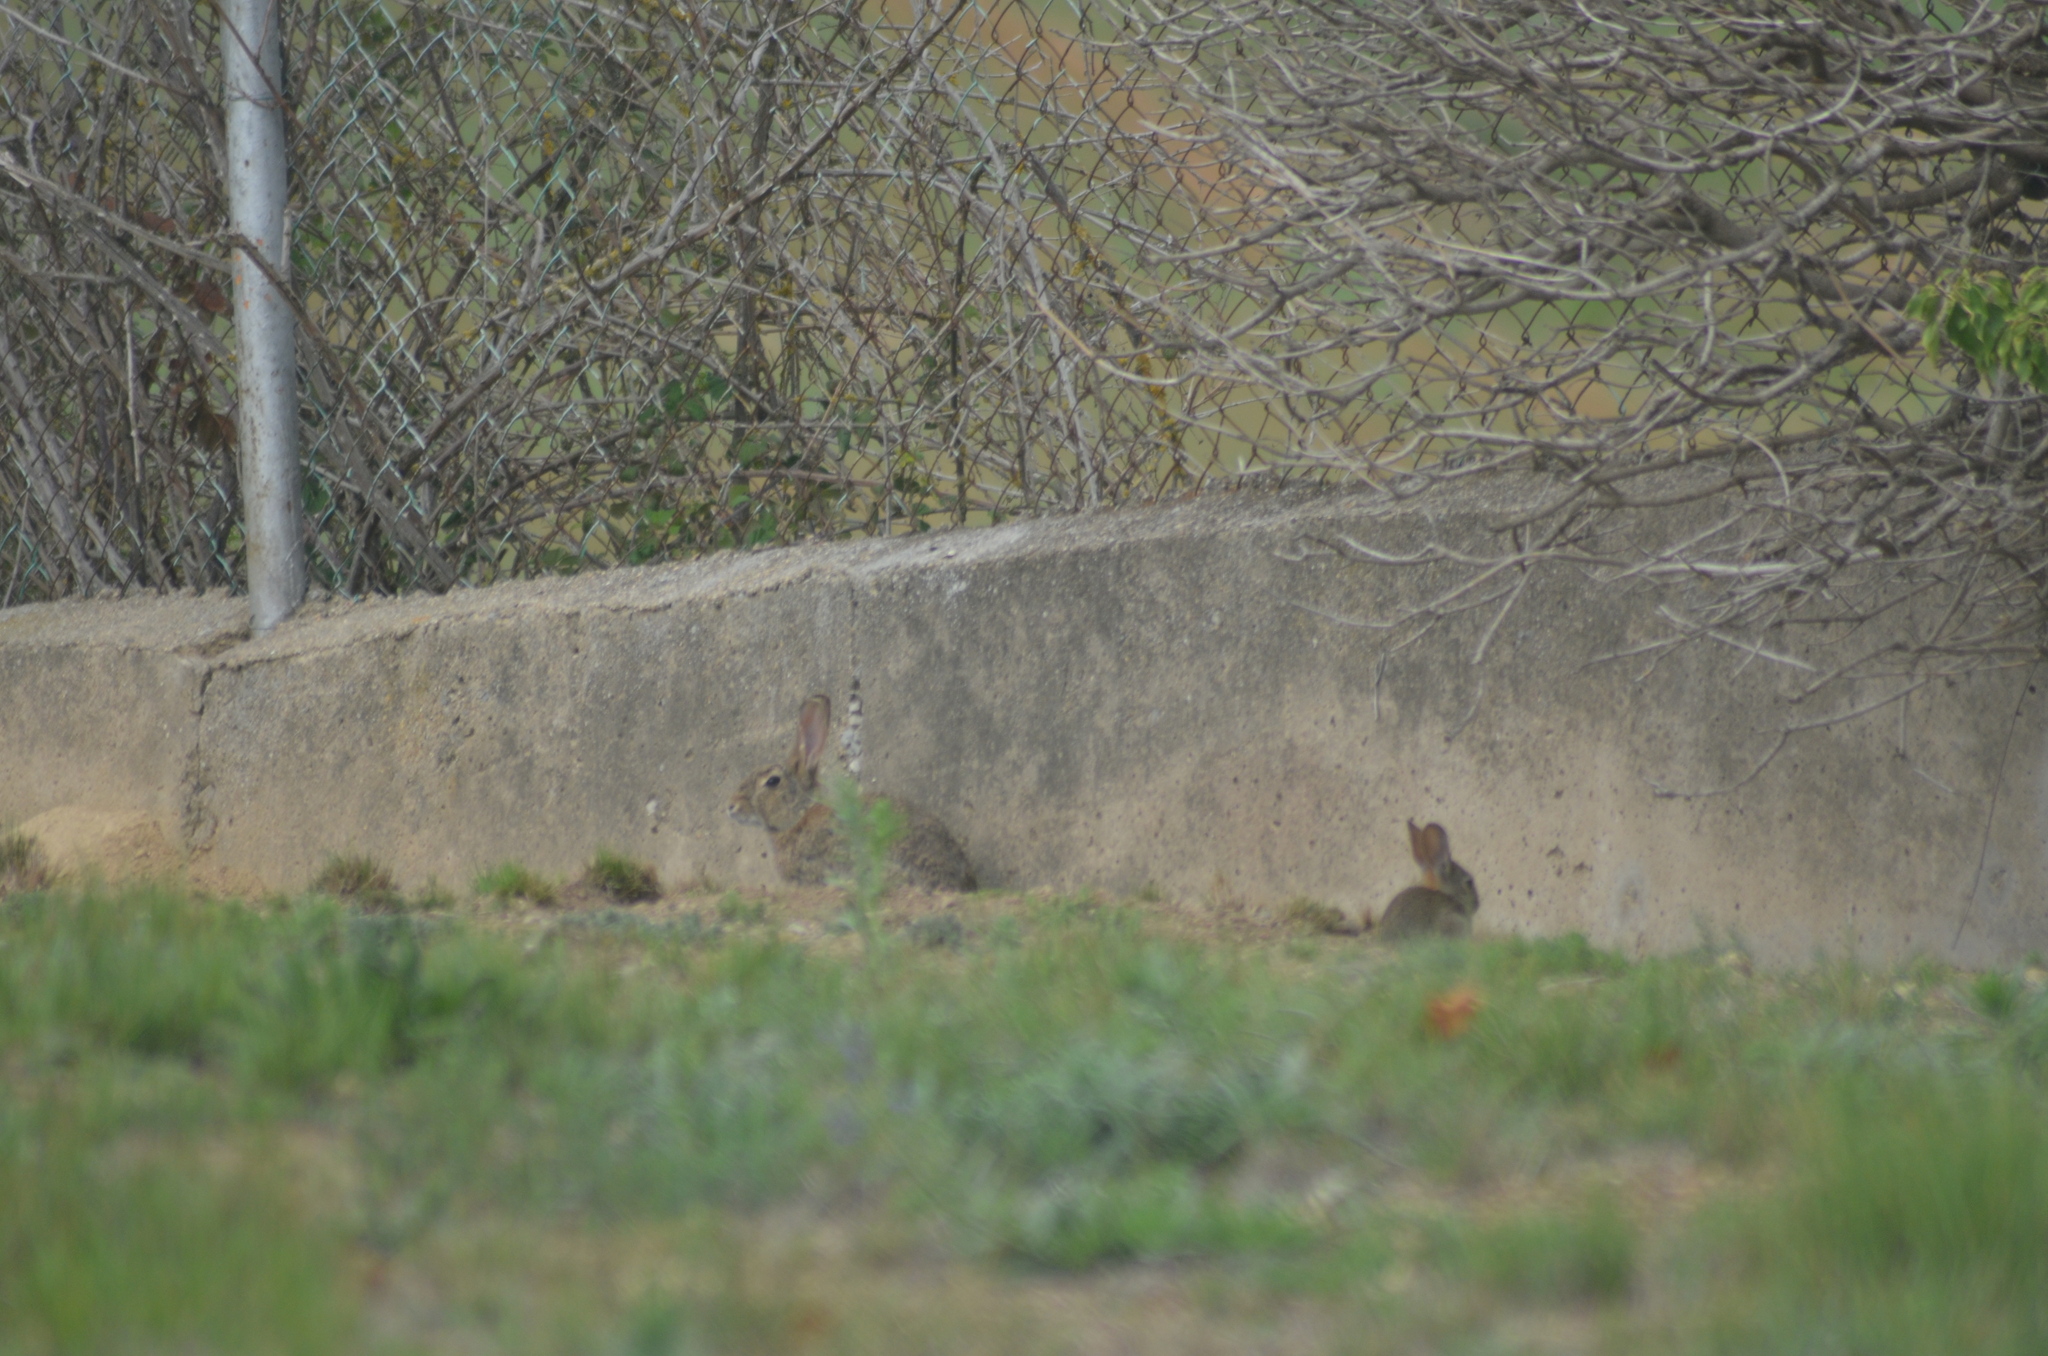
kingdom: Animalia
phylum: Chordata
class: Mammalia
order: Lagomorpha
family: Leporidae
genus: Oryctolagus
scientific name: Oryctolagus cuniculus
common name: European rabbit
